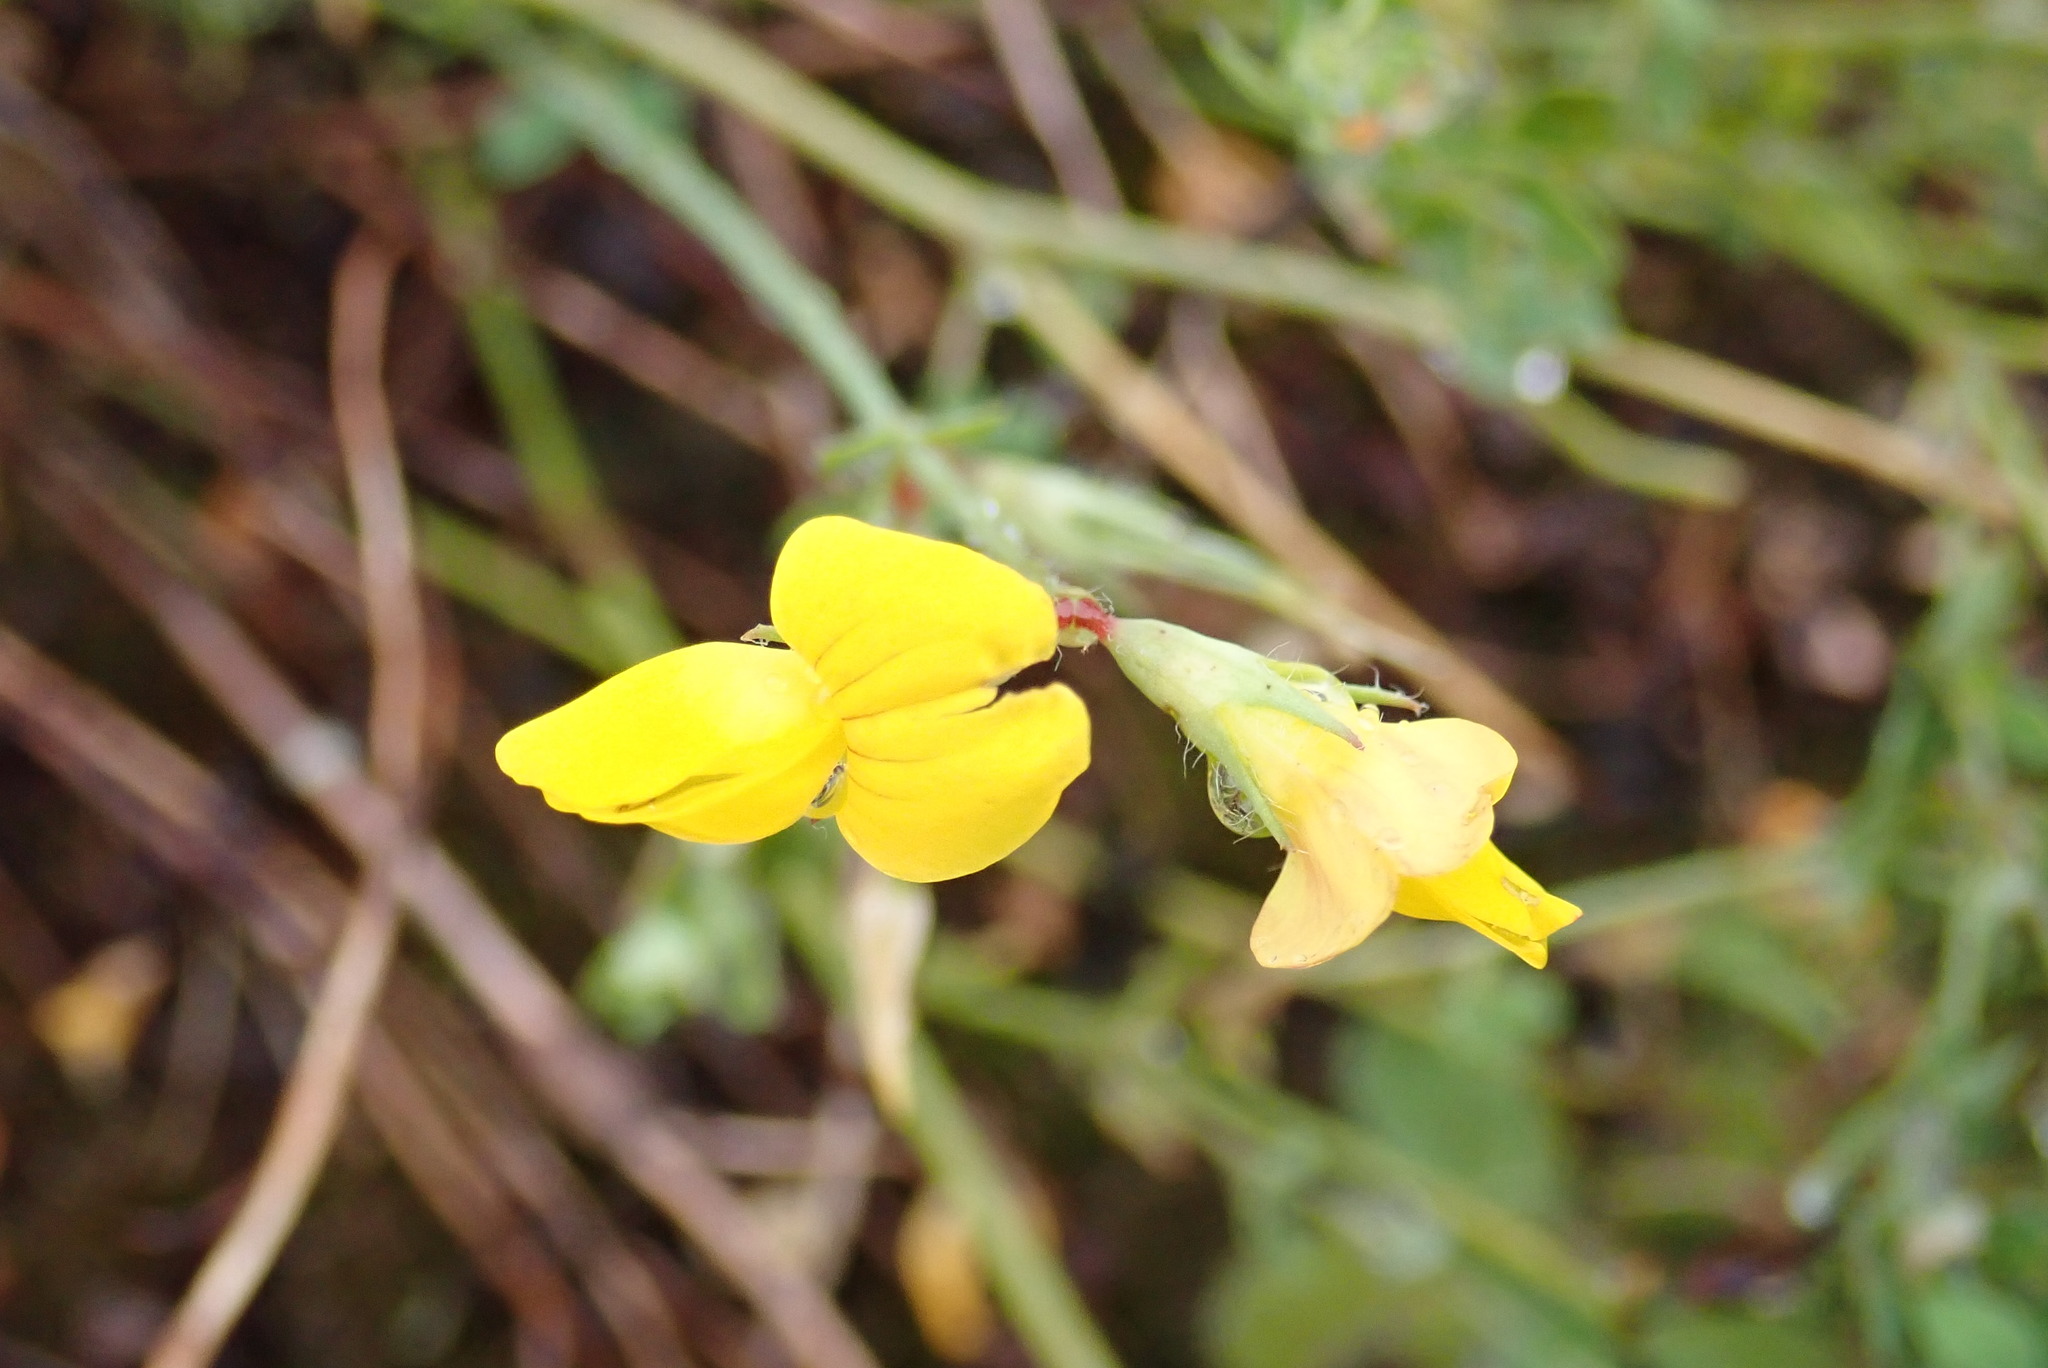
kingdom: Plantae
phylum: Tracheophyta
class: Magnoliopsida
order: Fabales
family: Fabaceae
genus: Lotus
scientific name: Lotus corniculatus
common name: Common bird's-foot-trefoil
